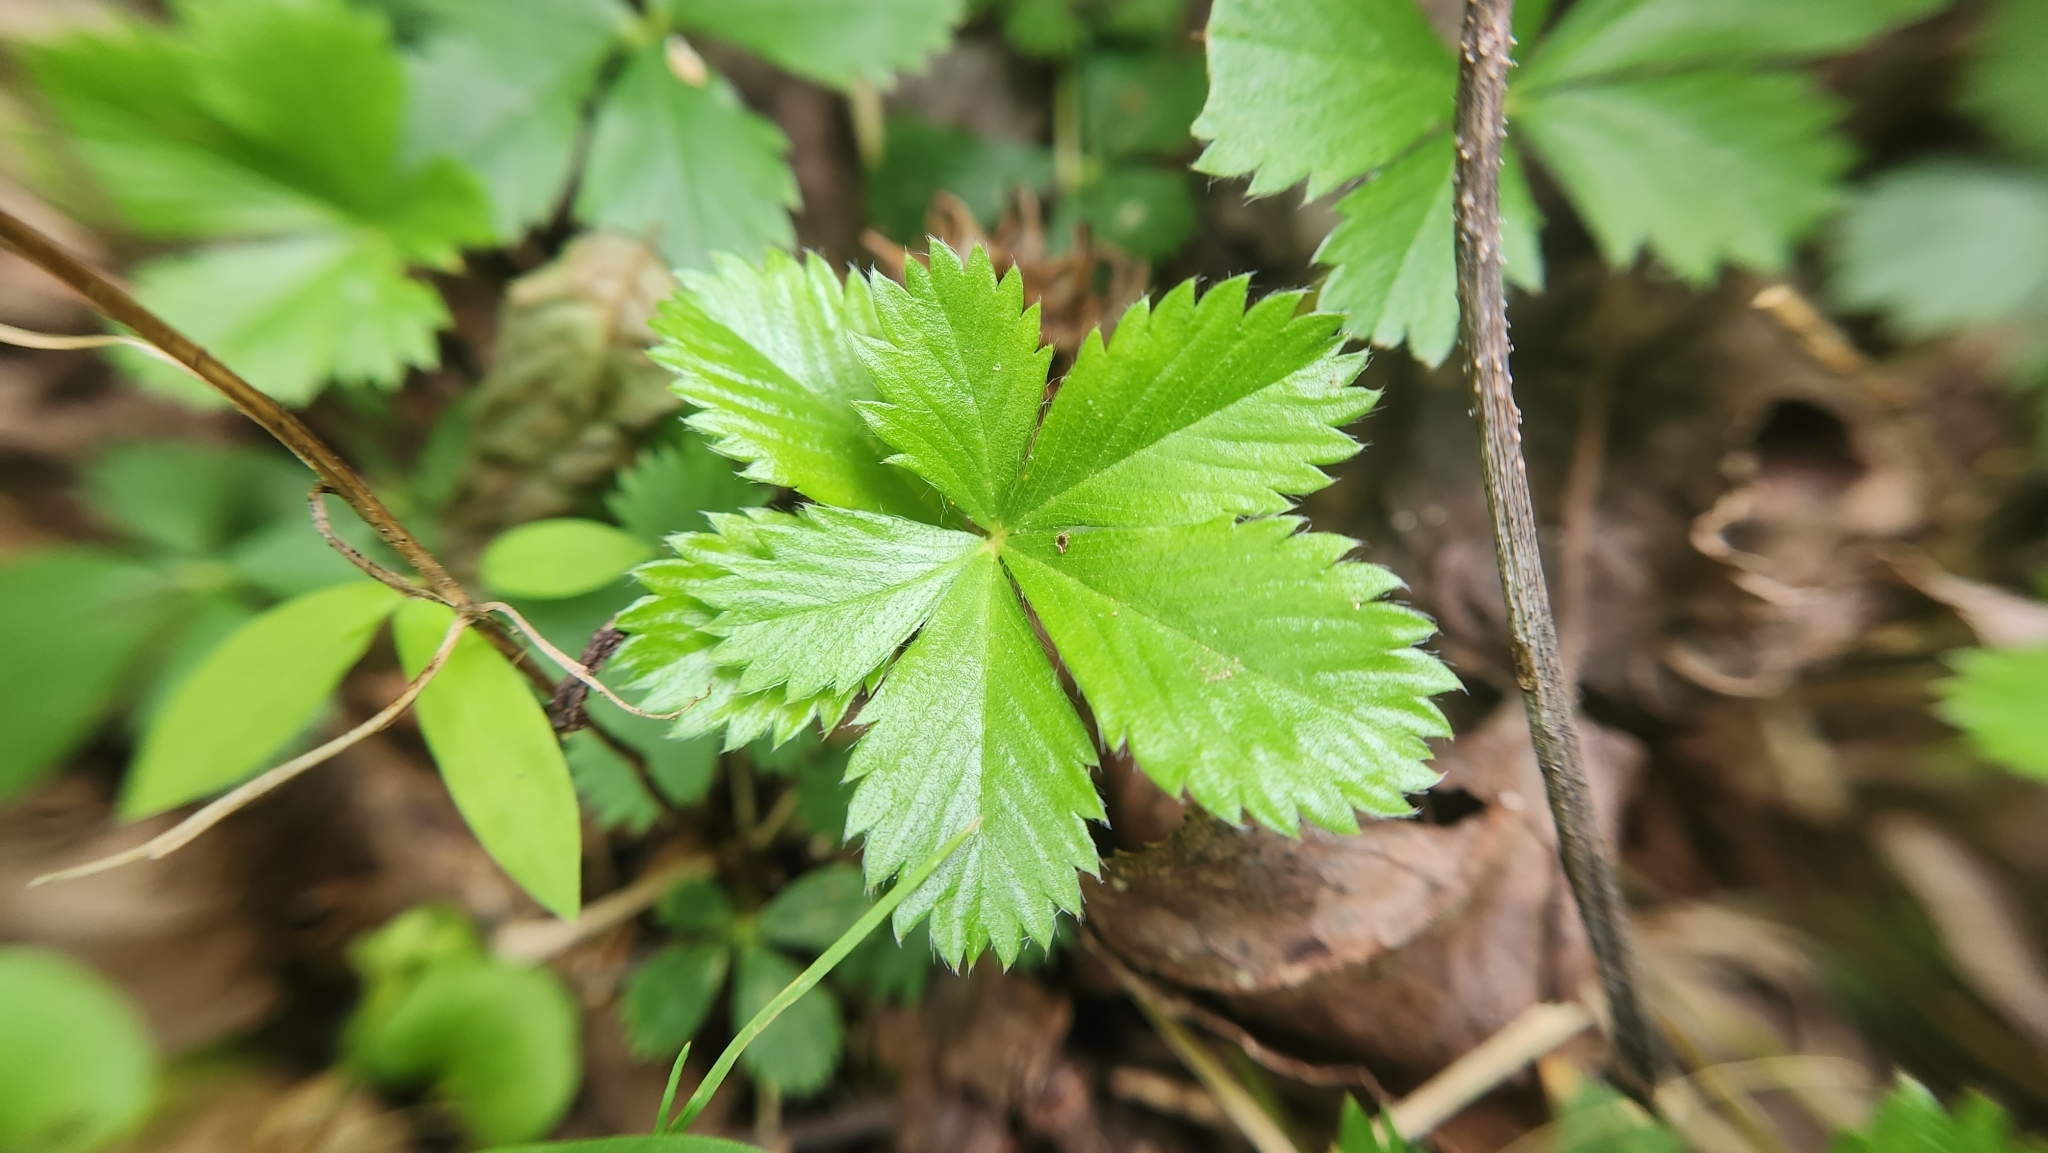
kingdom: Plantae
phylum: Tracheophyta
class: Magnoliopsida
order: Rosales
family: Rosaceae
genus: Potentilla
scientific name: Potentilla canadensis
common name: Canada cinquefoil
